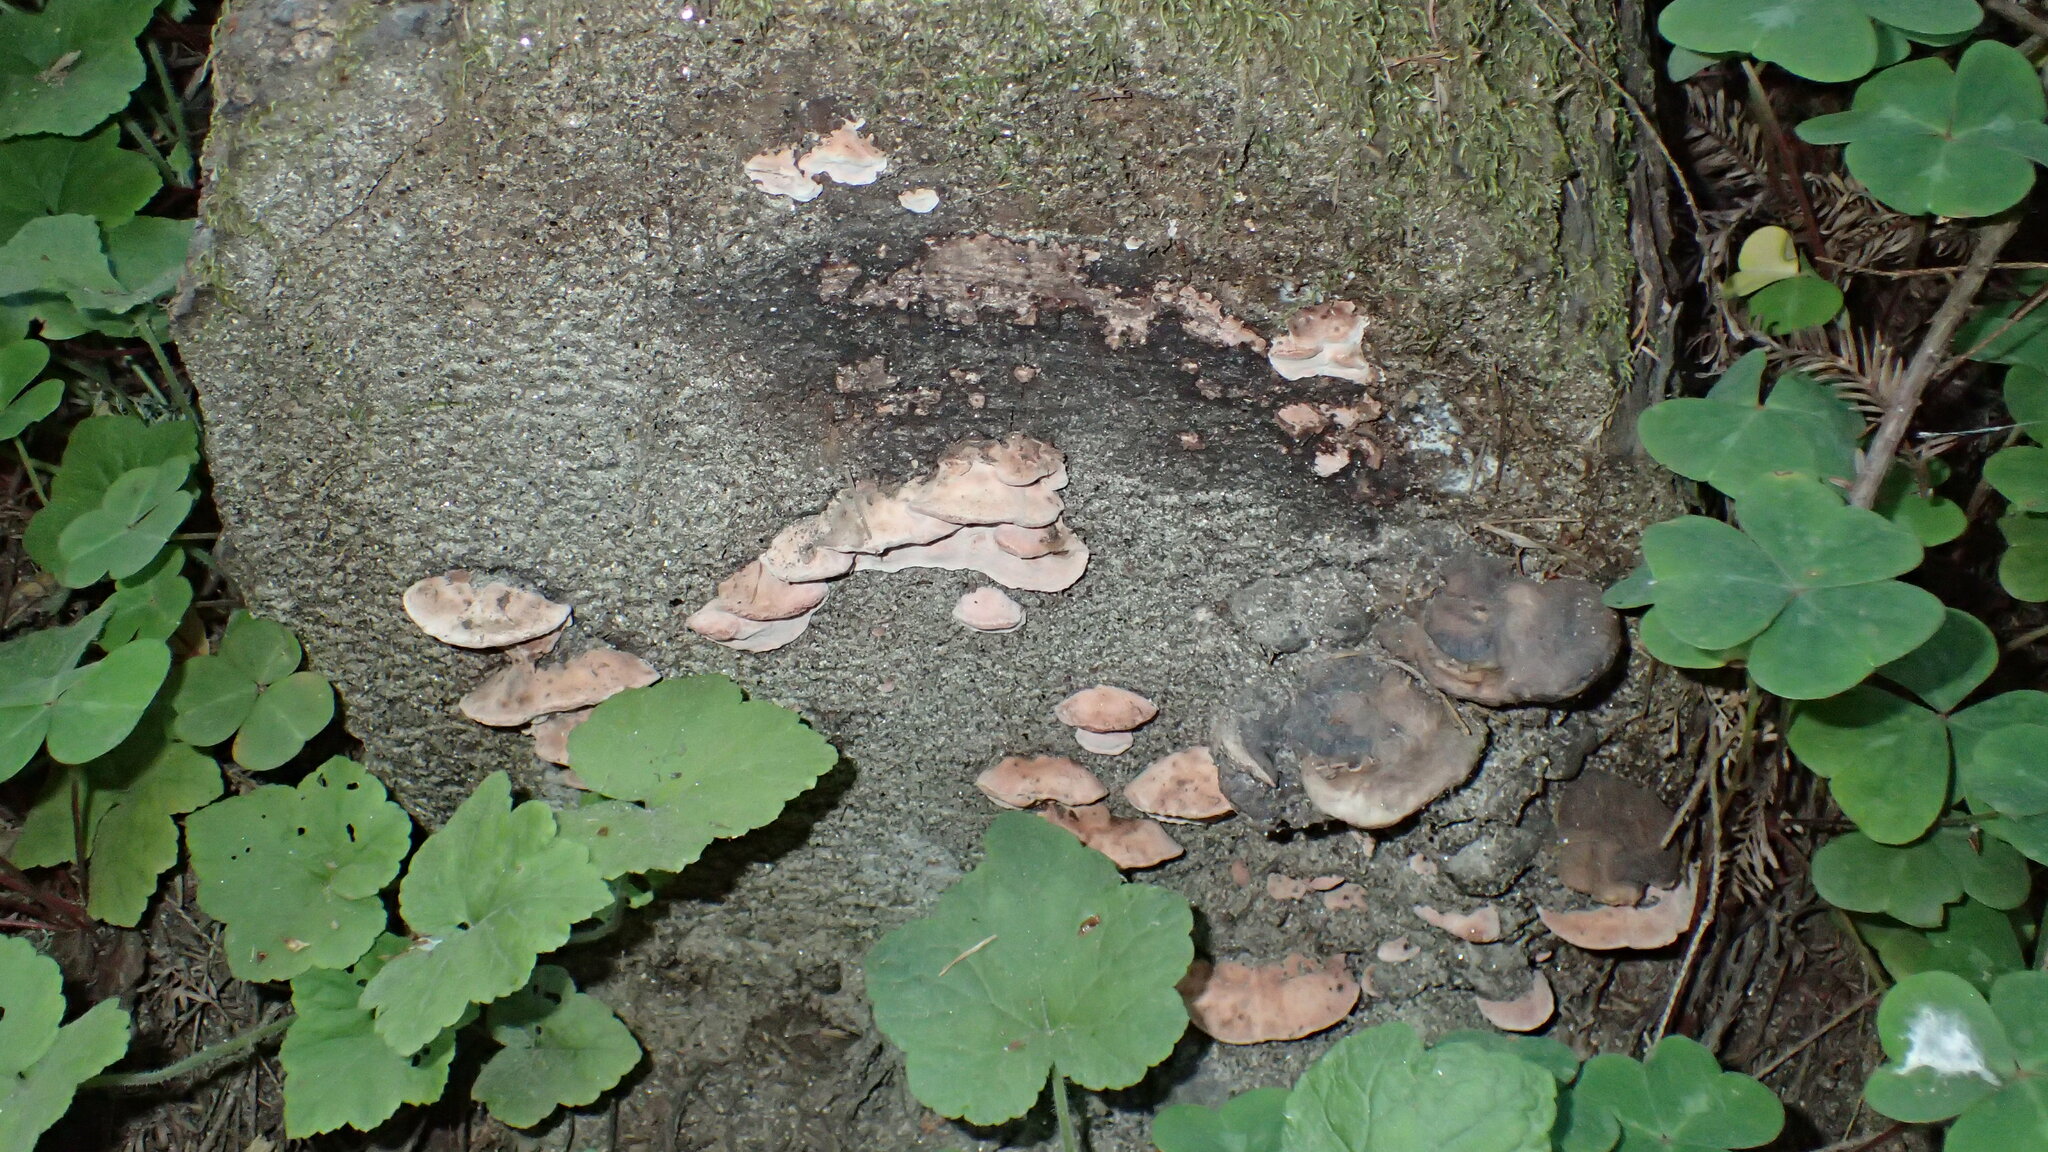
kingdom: Fungi
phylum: Basidiomycota
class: Agaricomycetes
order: Polyporales
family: Fomitopsidaceae
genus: Rhodofomes
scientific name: Rhodofomes cajanderi
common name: Rosy conk
